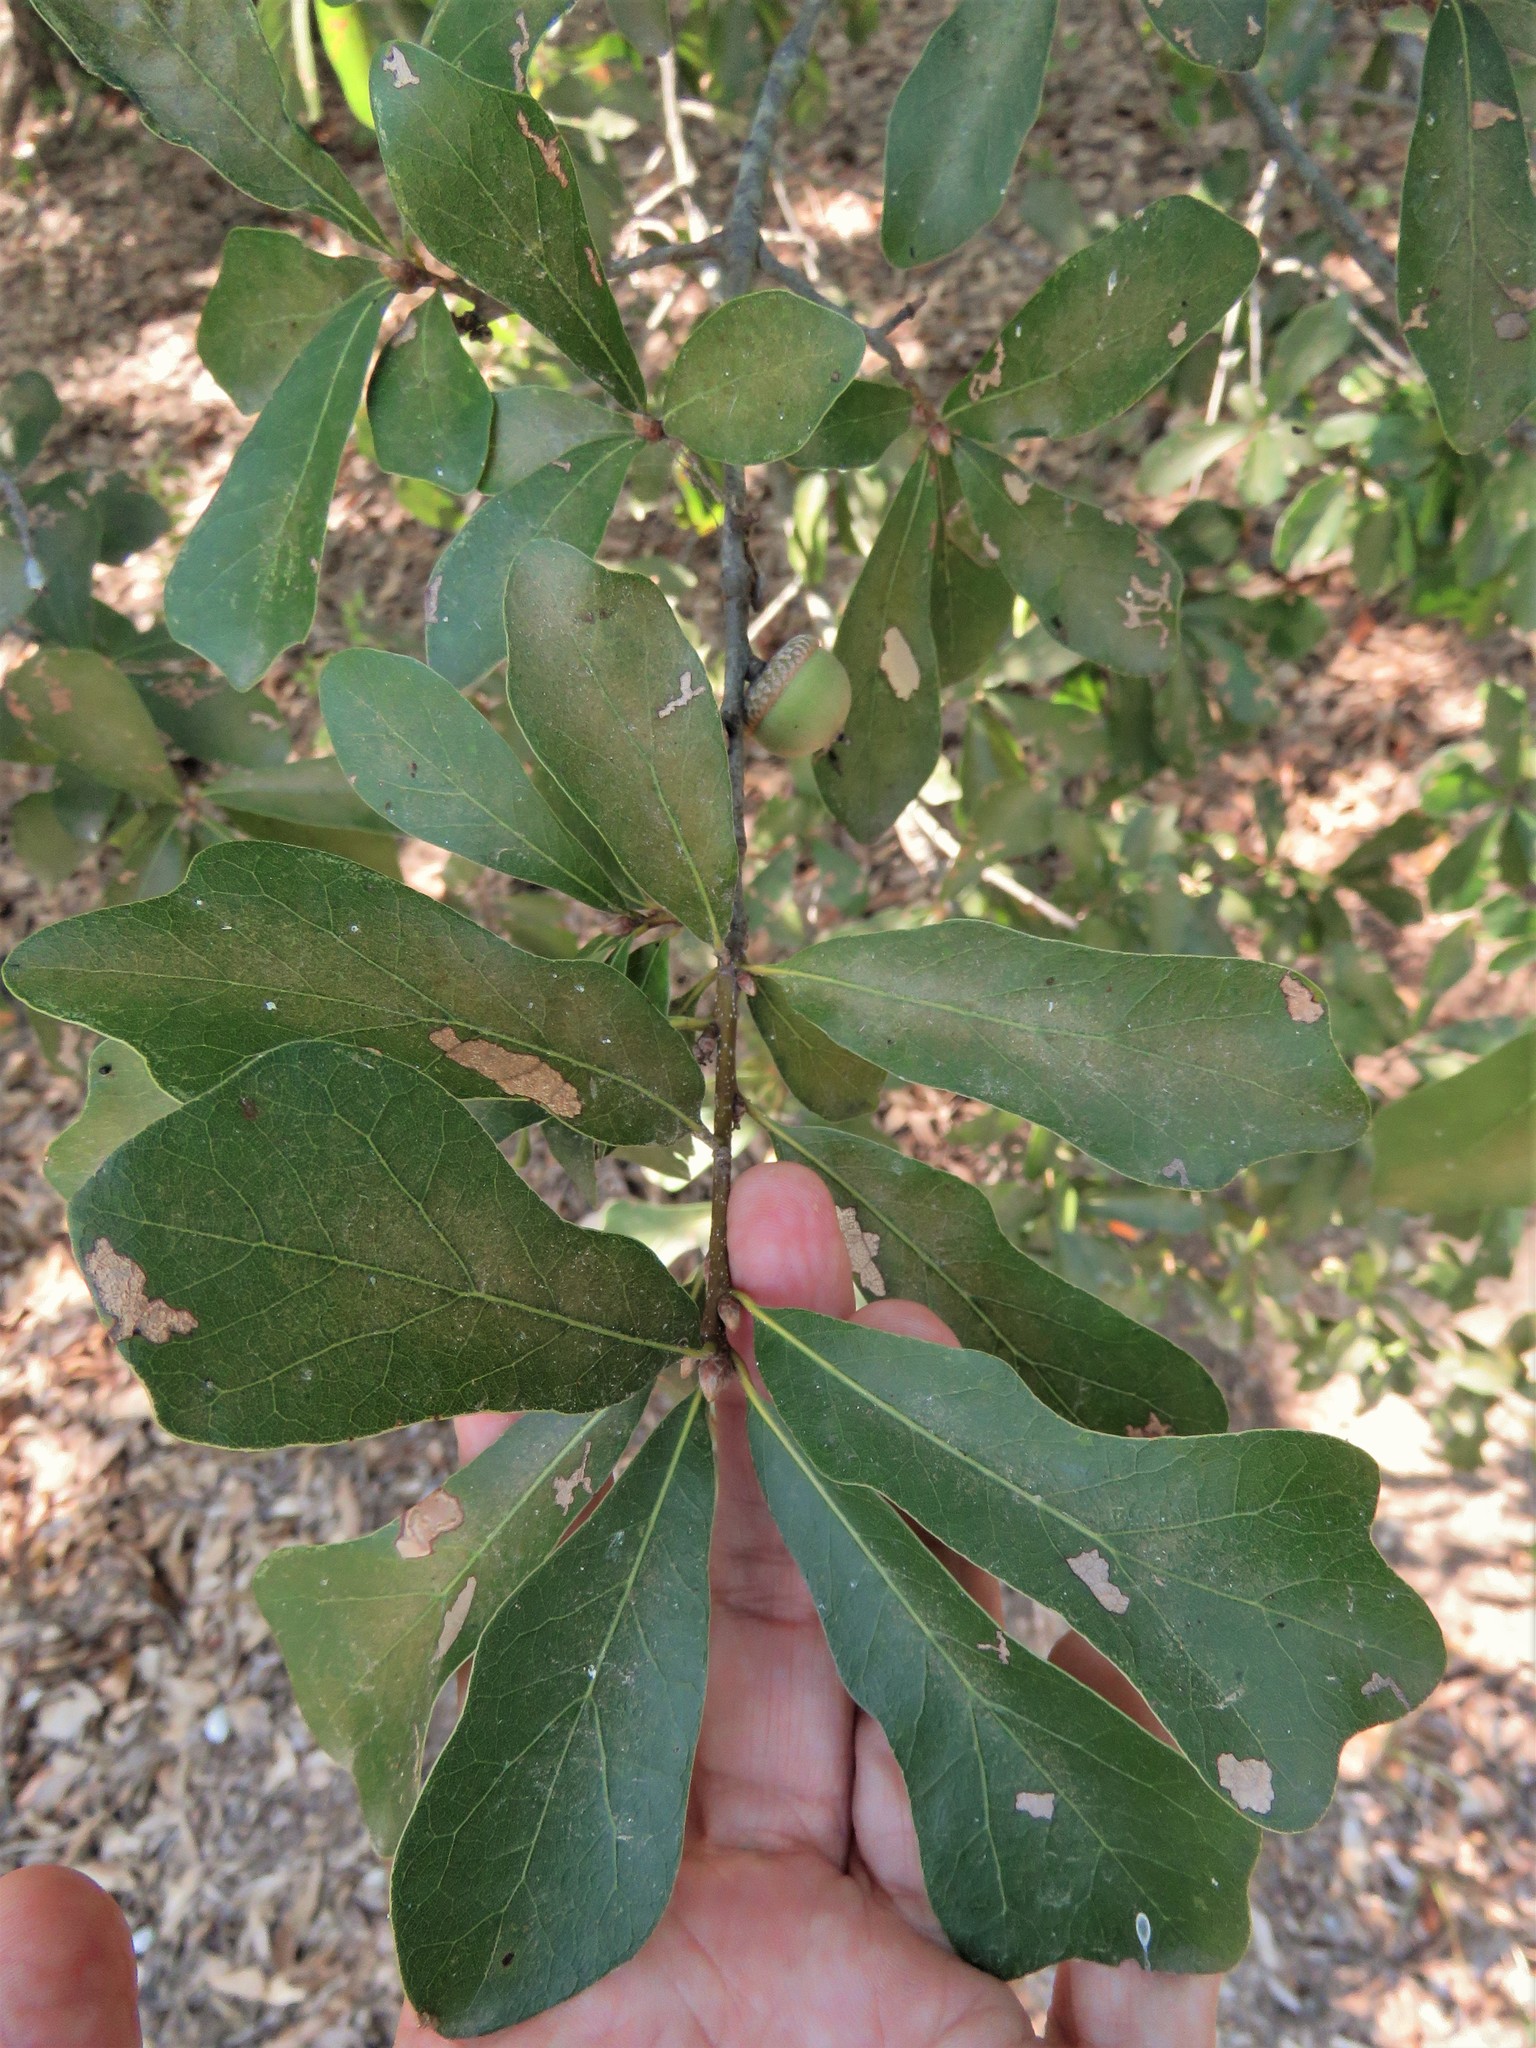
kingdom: Plantae
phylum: Tracheophyta
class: Magnoliopsida
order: Fagales
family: Fagaceae
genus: Quercus
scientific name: Quercus nigra
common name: Water oak
